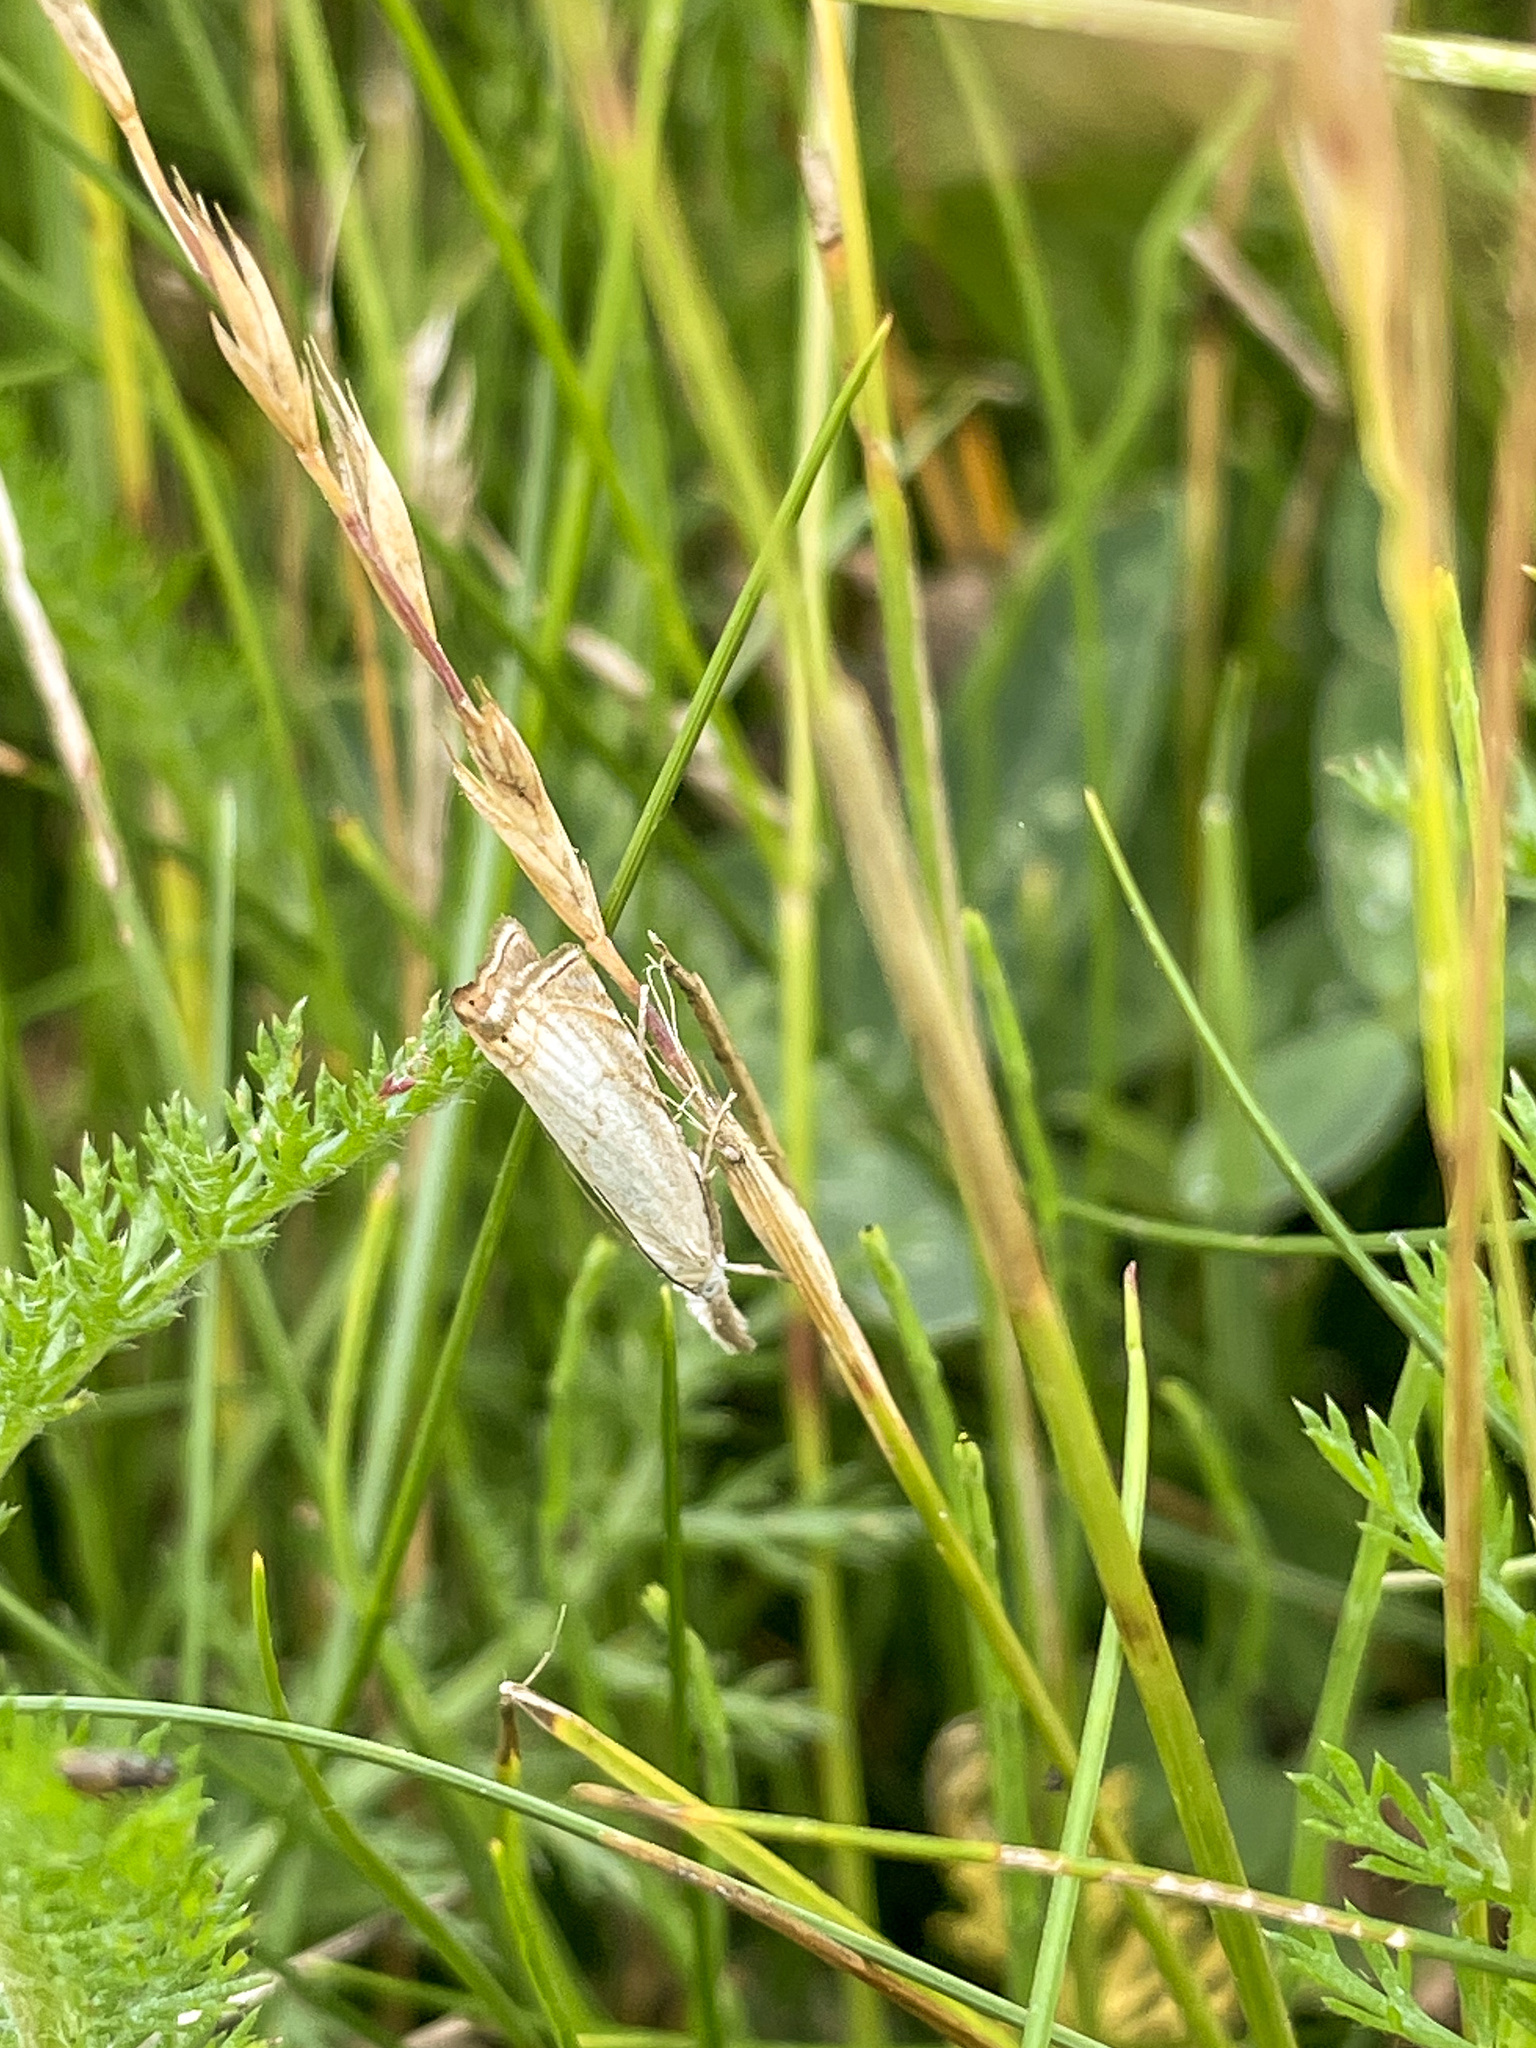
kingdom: Animalia
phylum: Arthropoda
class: Insecta
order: Lepidoptera
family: Crambidae
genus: Chrysoteuchia
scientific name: Chrysoteuchia culmella
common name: Garden grass-veneer
